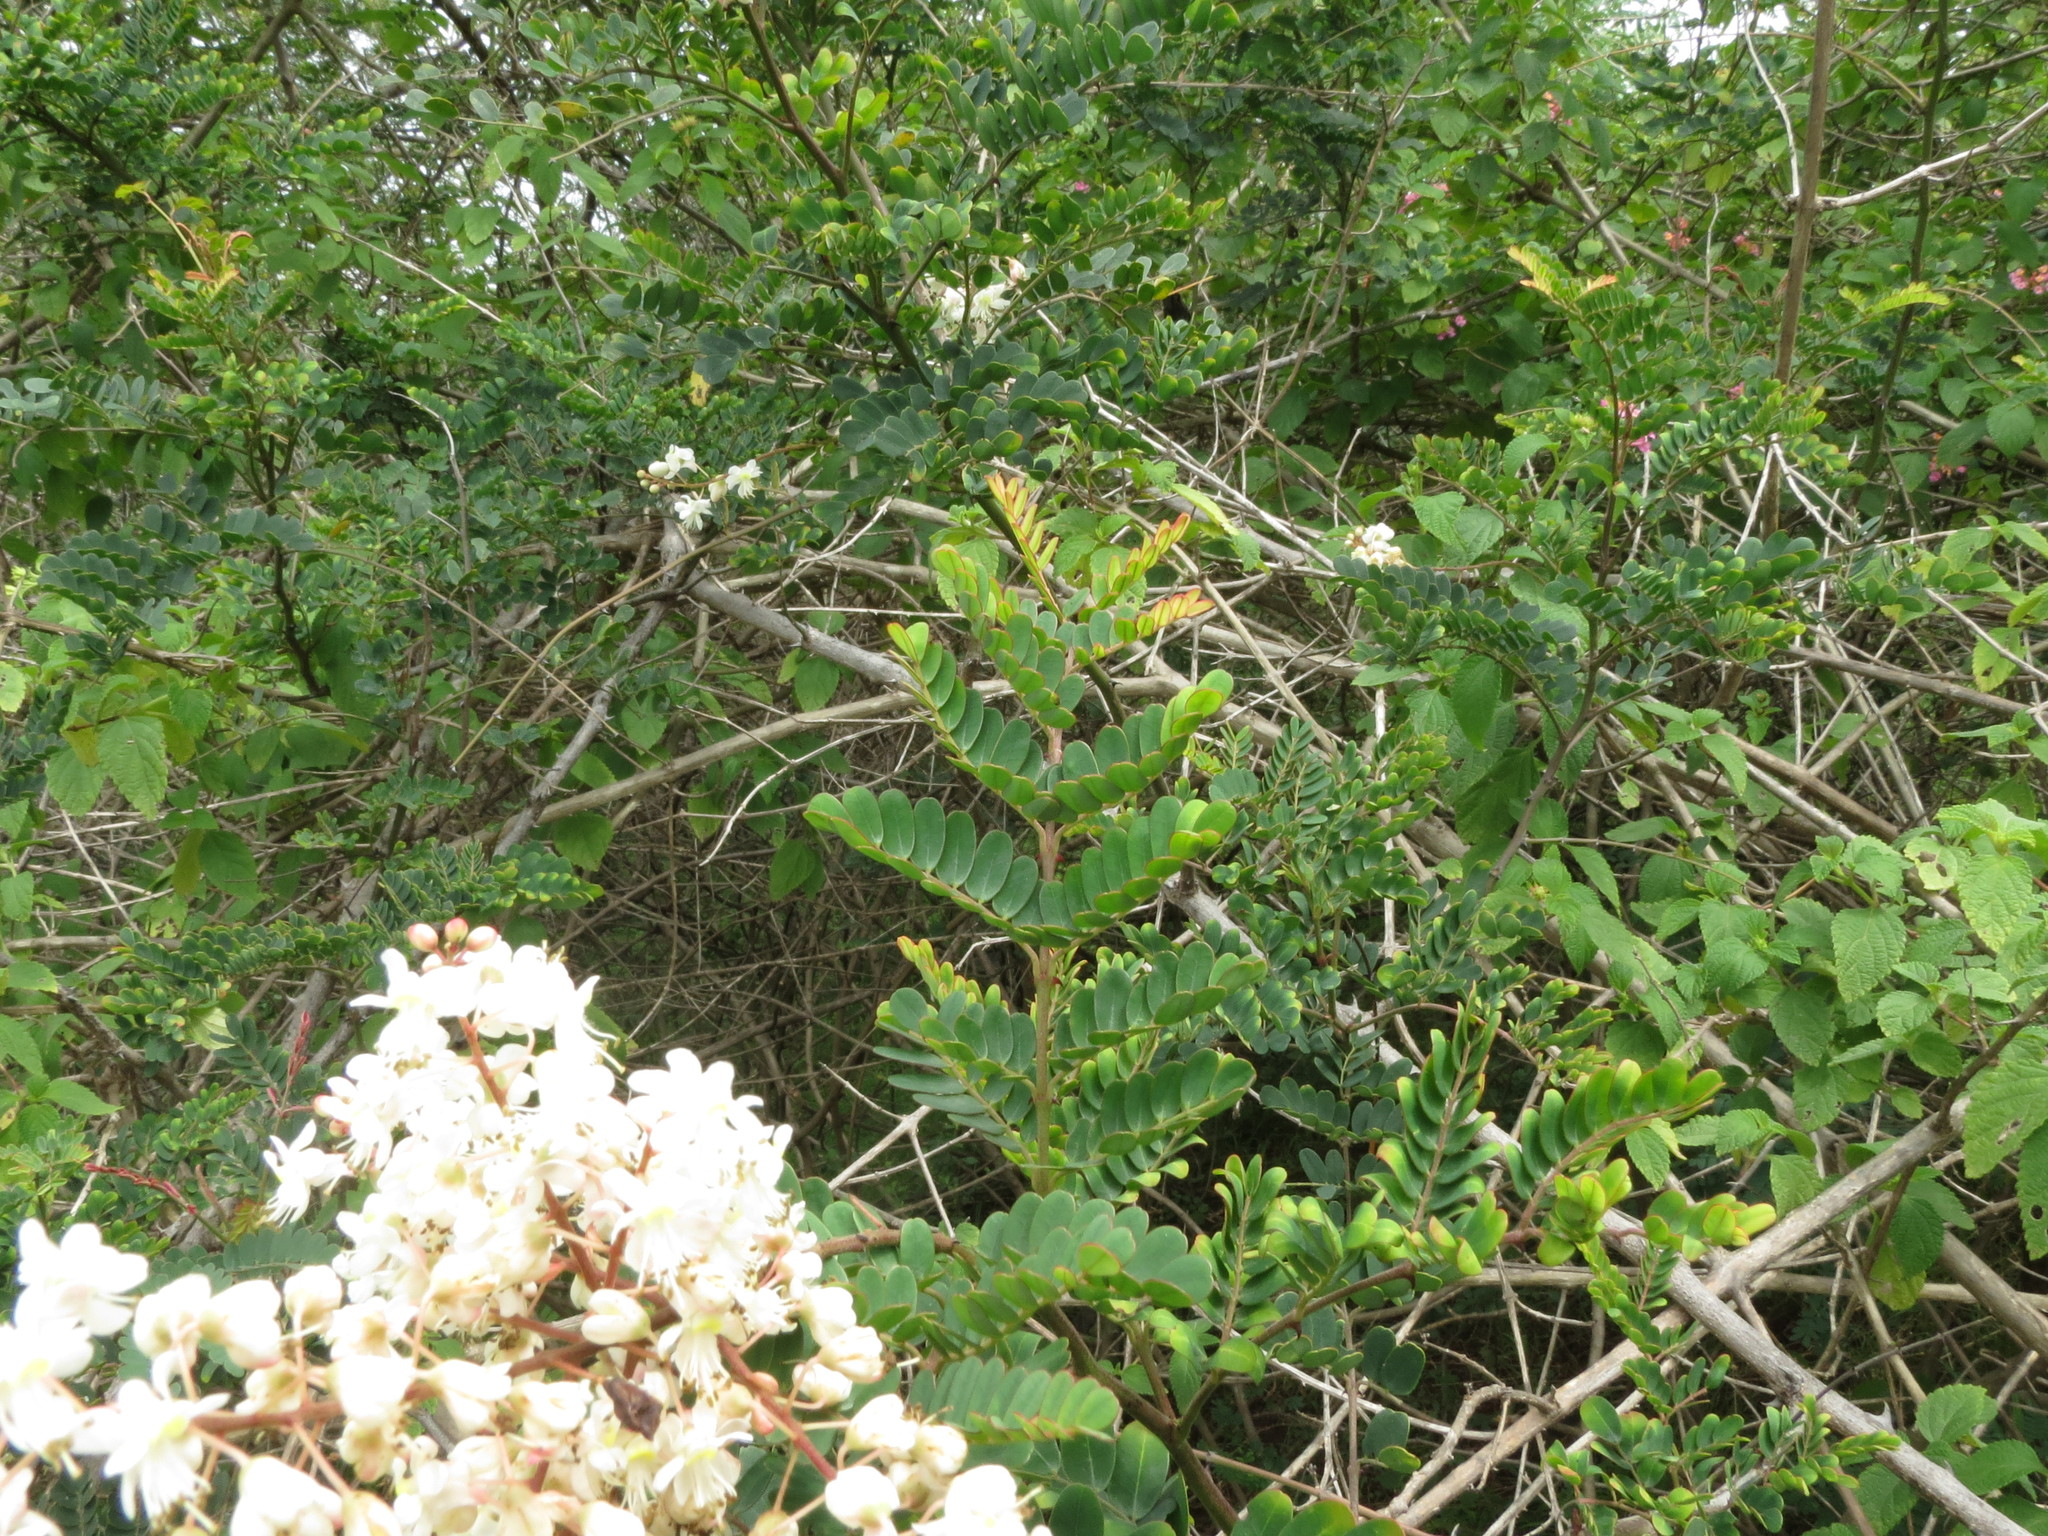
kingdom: Plantae
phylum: Tracheophyta
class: Magnoliopsida
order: Fabales
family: Fabaceae
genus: Pterolobium
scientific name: Pterolobium hexapetalum
